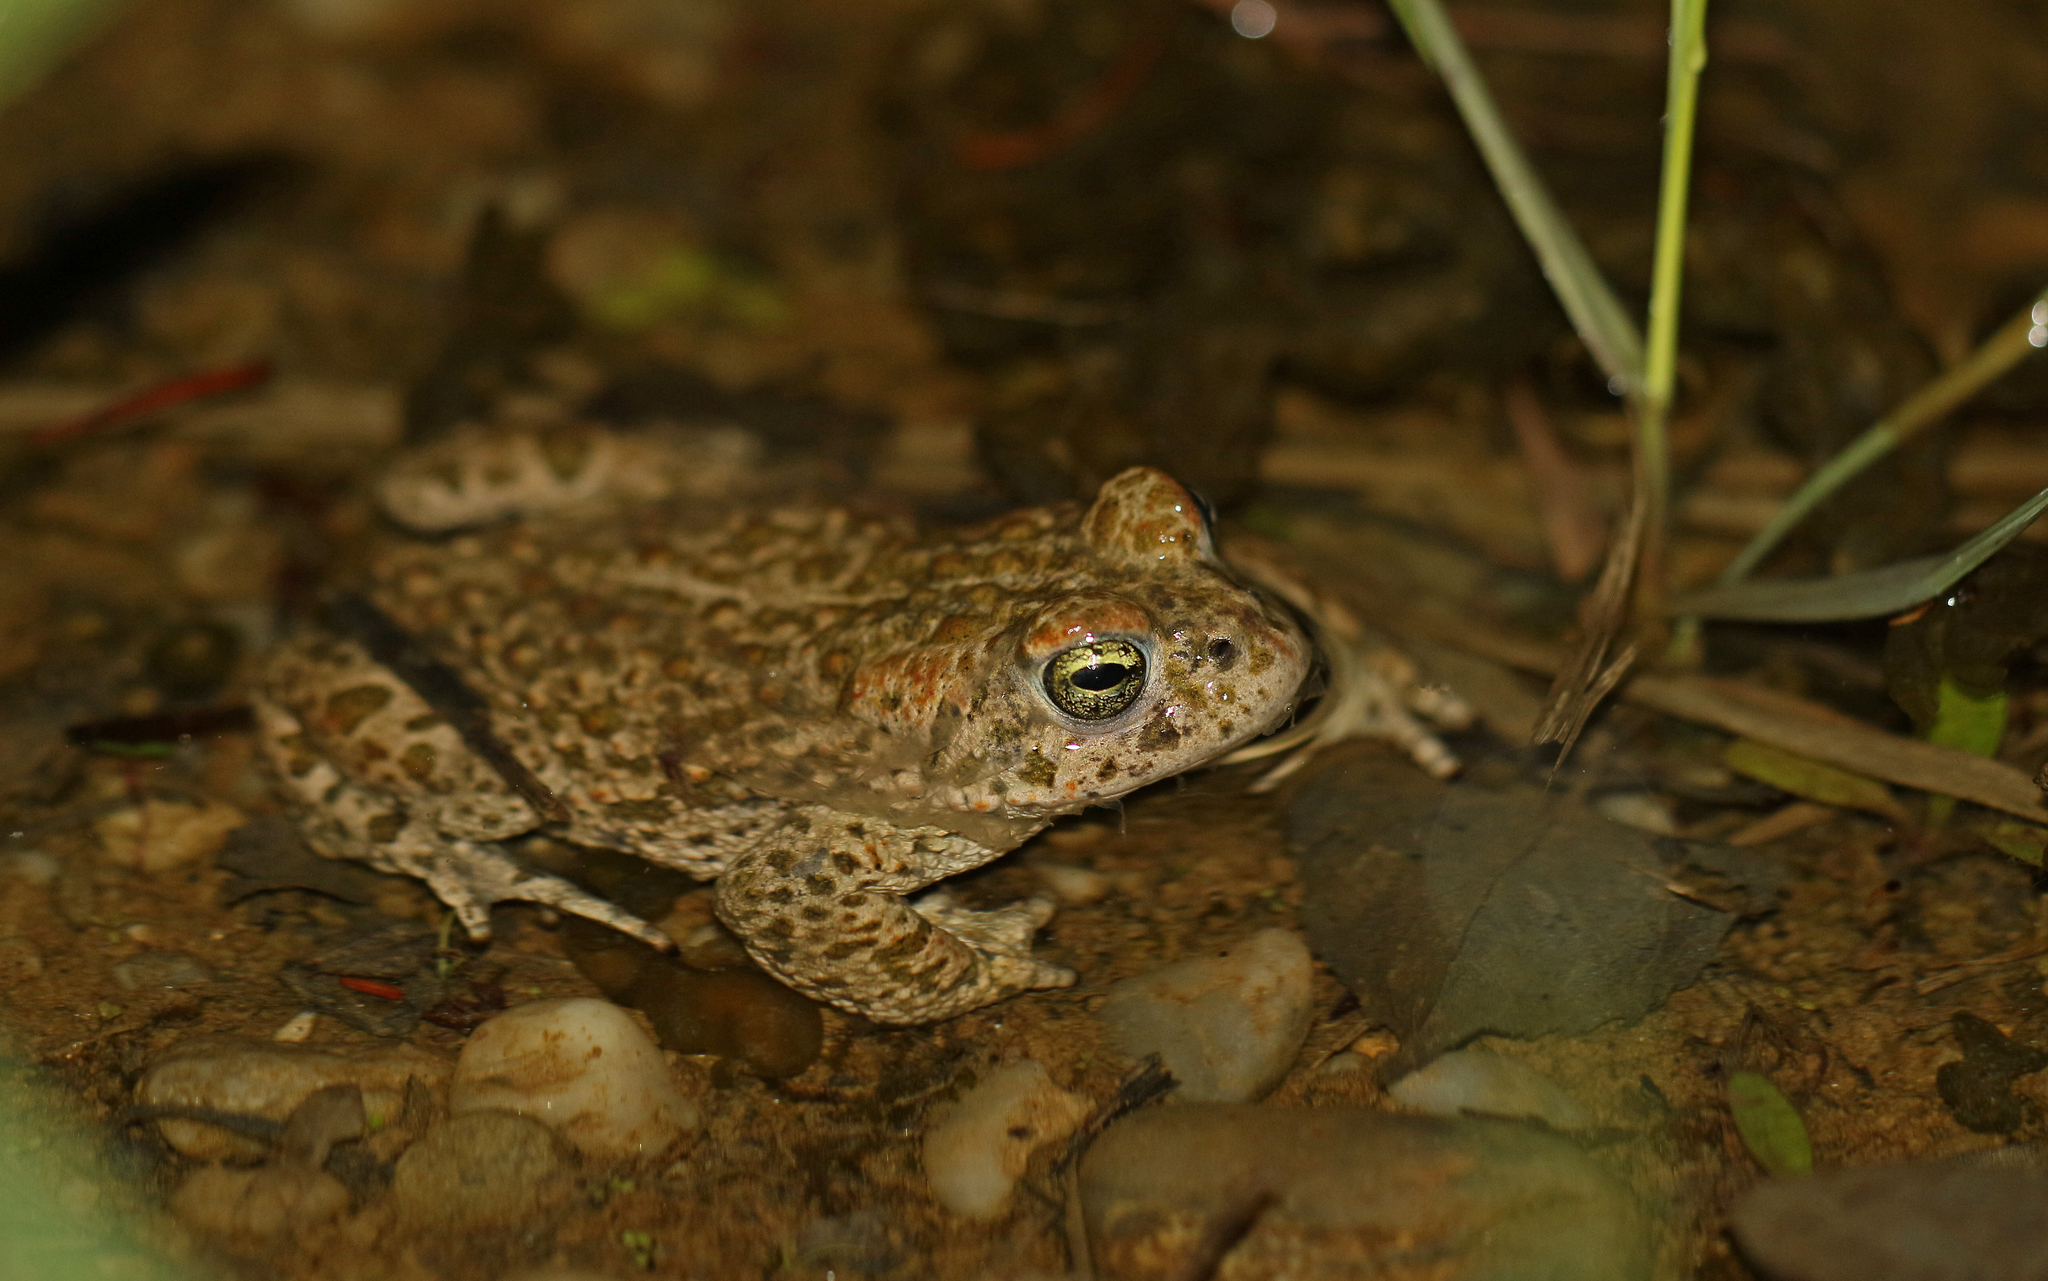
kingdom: Animalia
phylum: Chordata
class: Amphibia
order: Anura
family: Bufonidae
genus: Epidalea
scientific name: Epidalea calamita
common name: Natterjack toad
